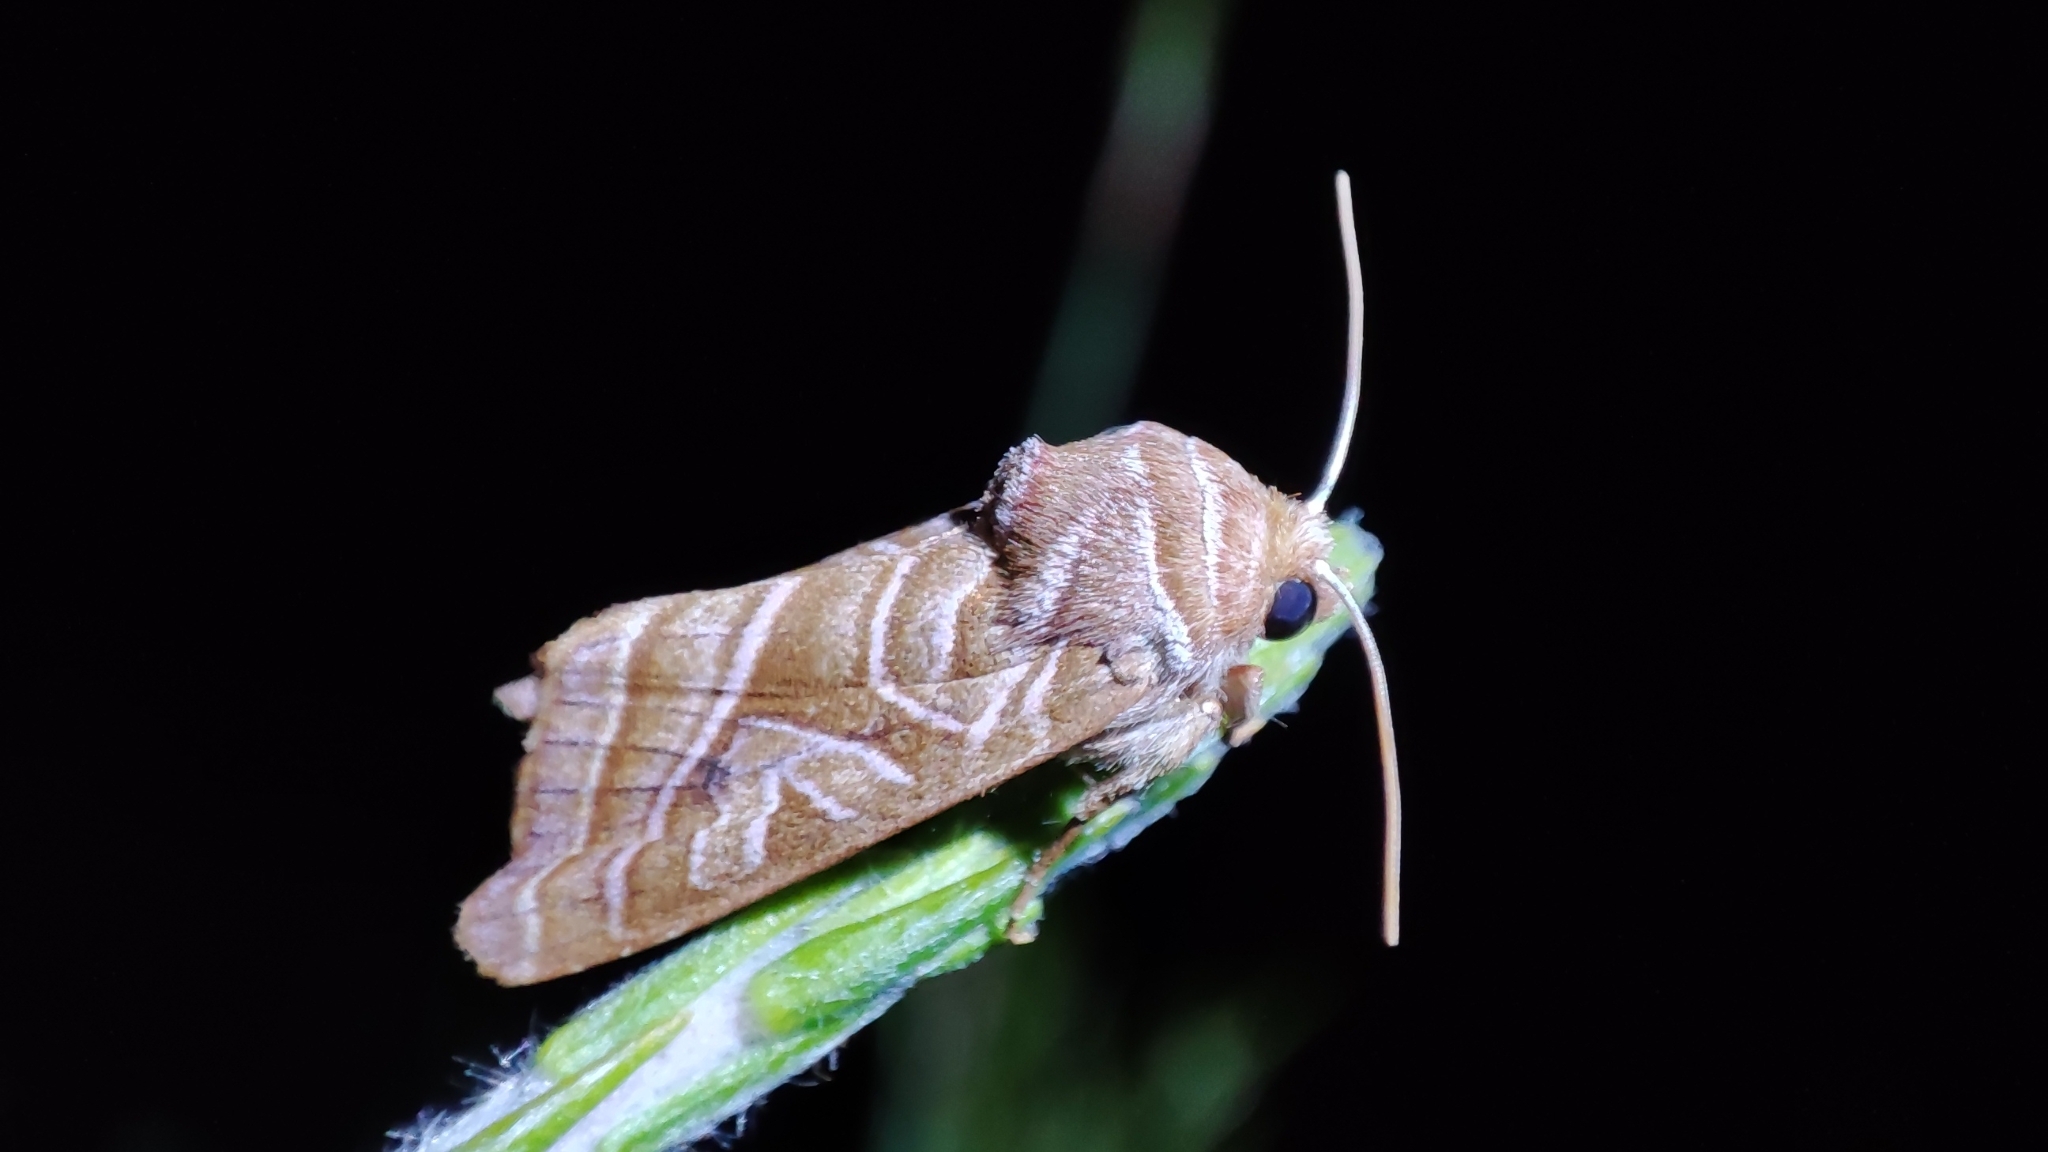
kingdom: Animalia
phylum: Arthropoda
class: Insecta
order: Lepidoptera
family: Noctuidae
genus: Conservula
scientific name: Conservula minor
